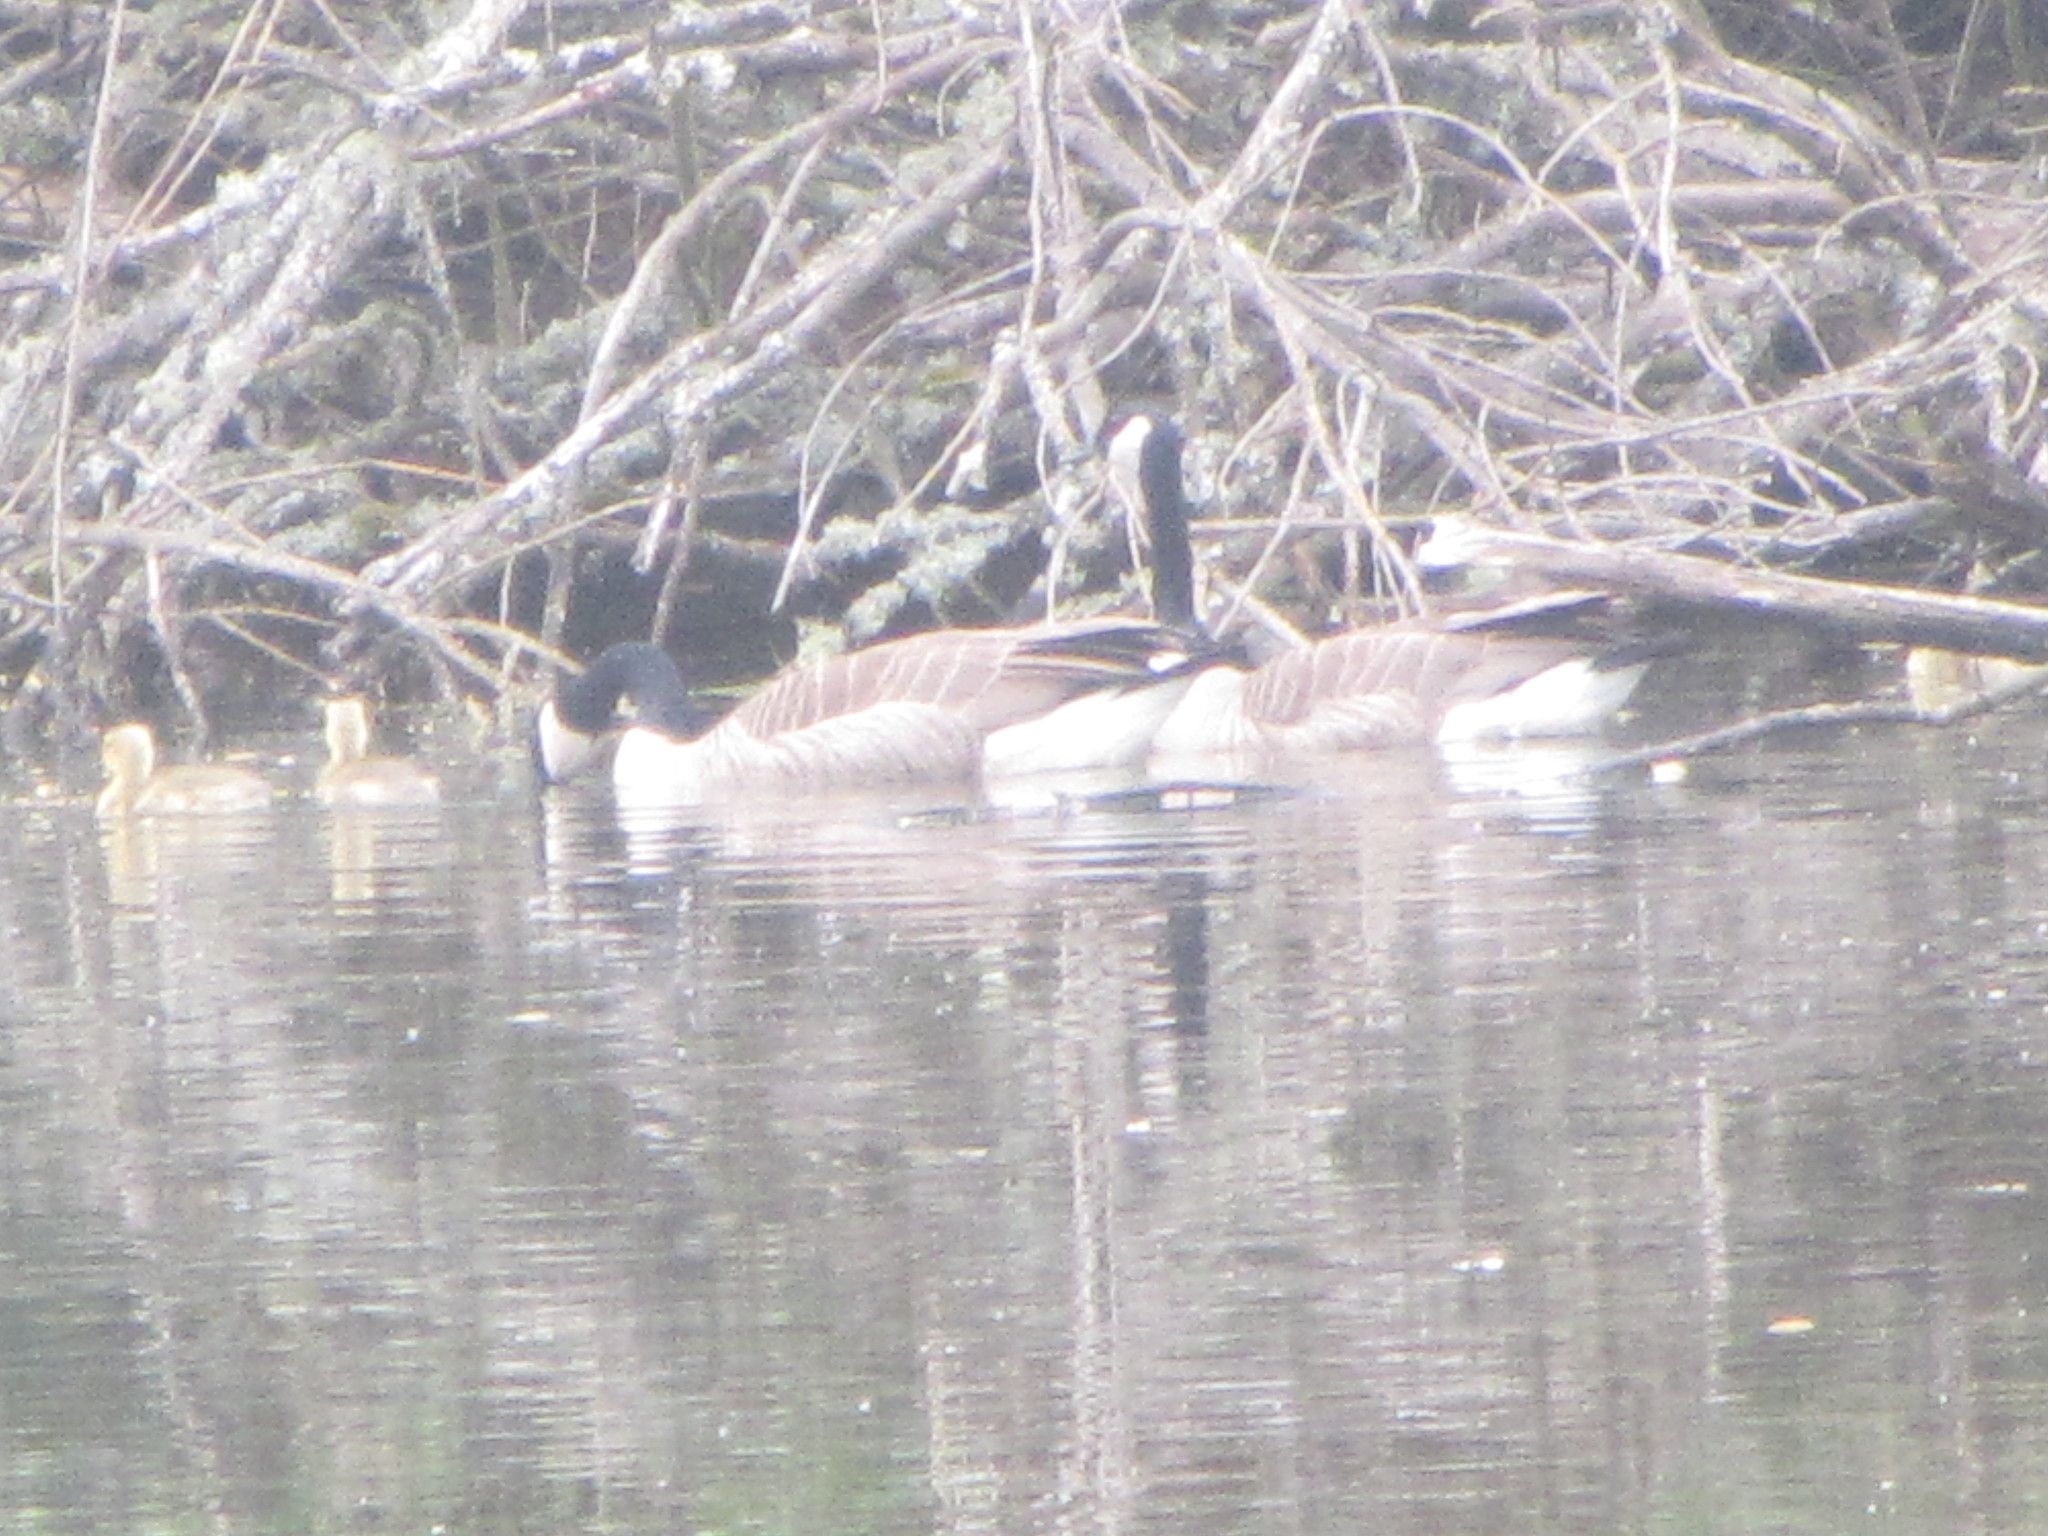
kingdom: Animalia
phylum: Chordata
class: Aves
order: Anseriformes
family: Anatidae
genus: Branta
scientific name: Branta canadensis
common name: Canada goose
